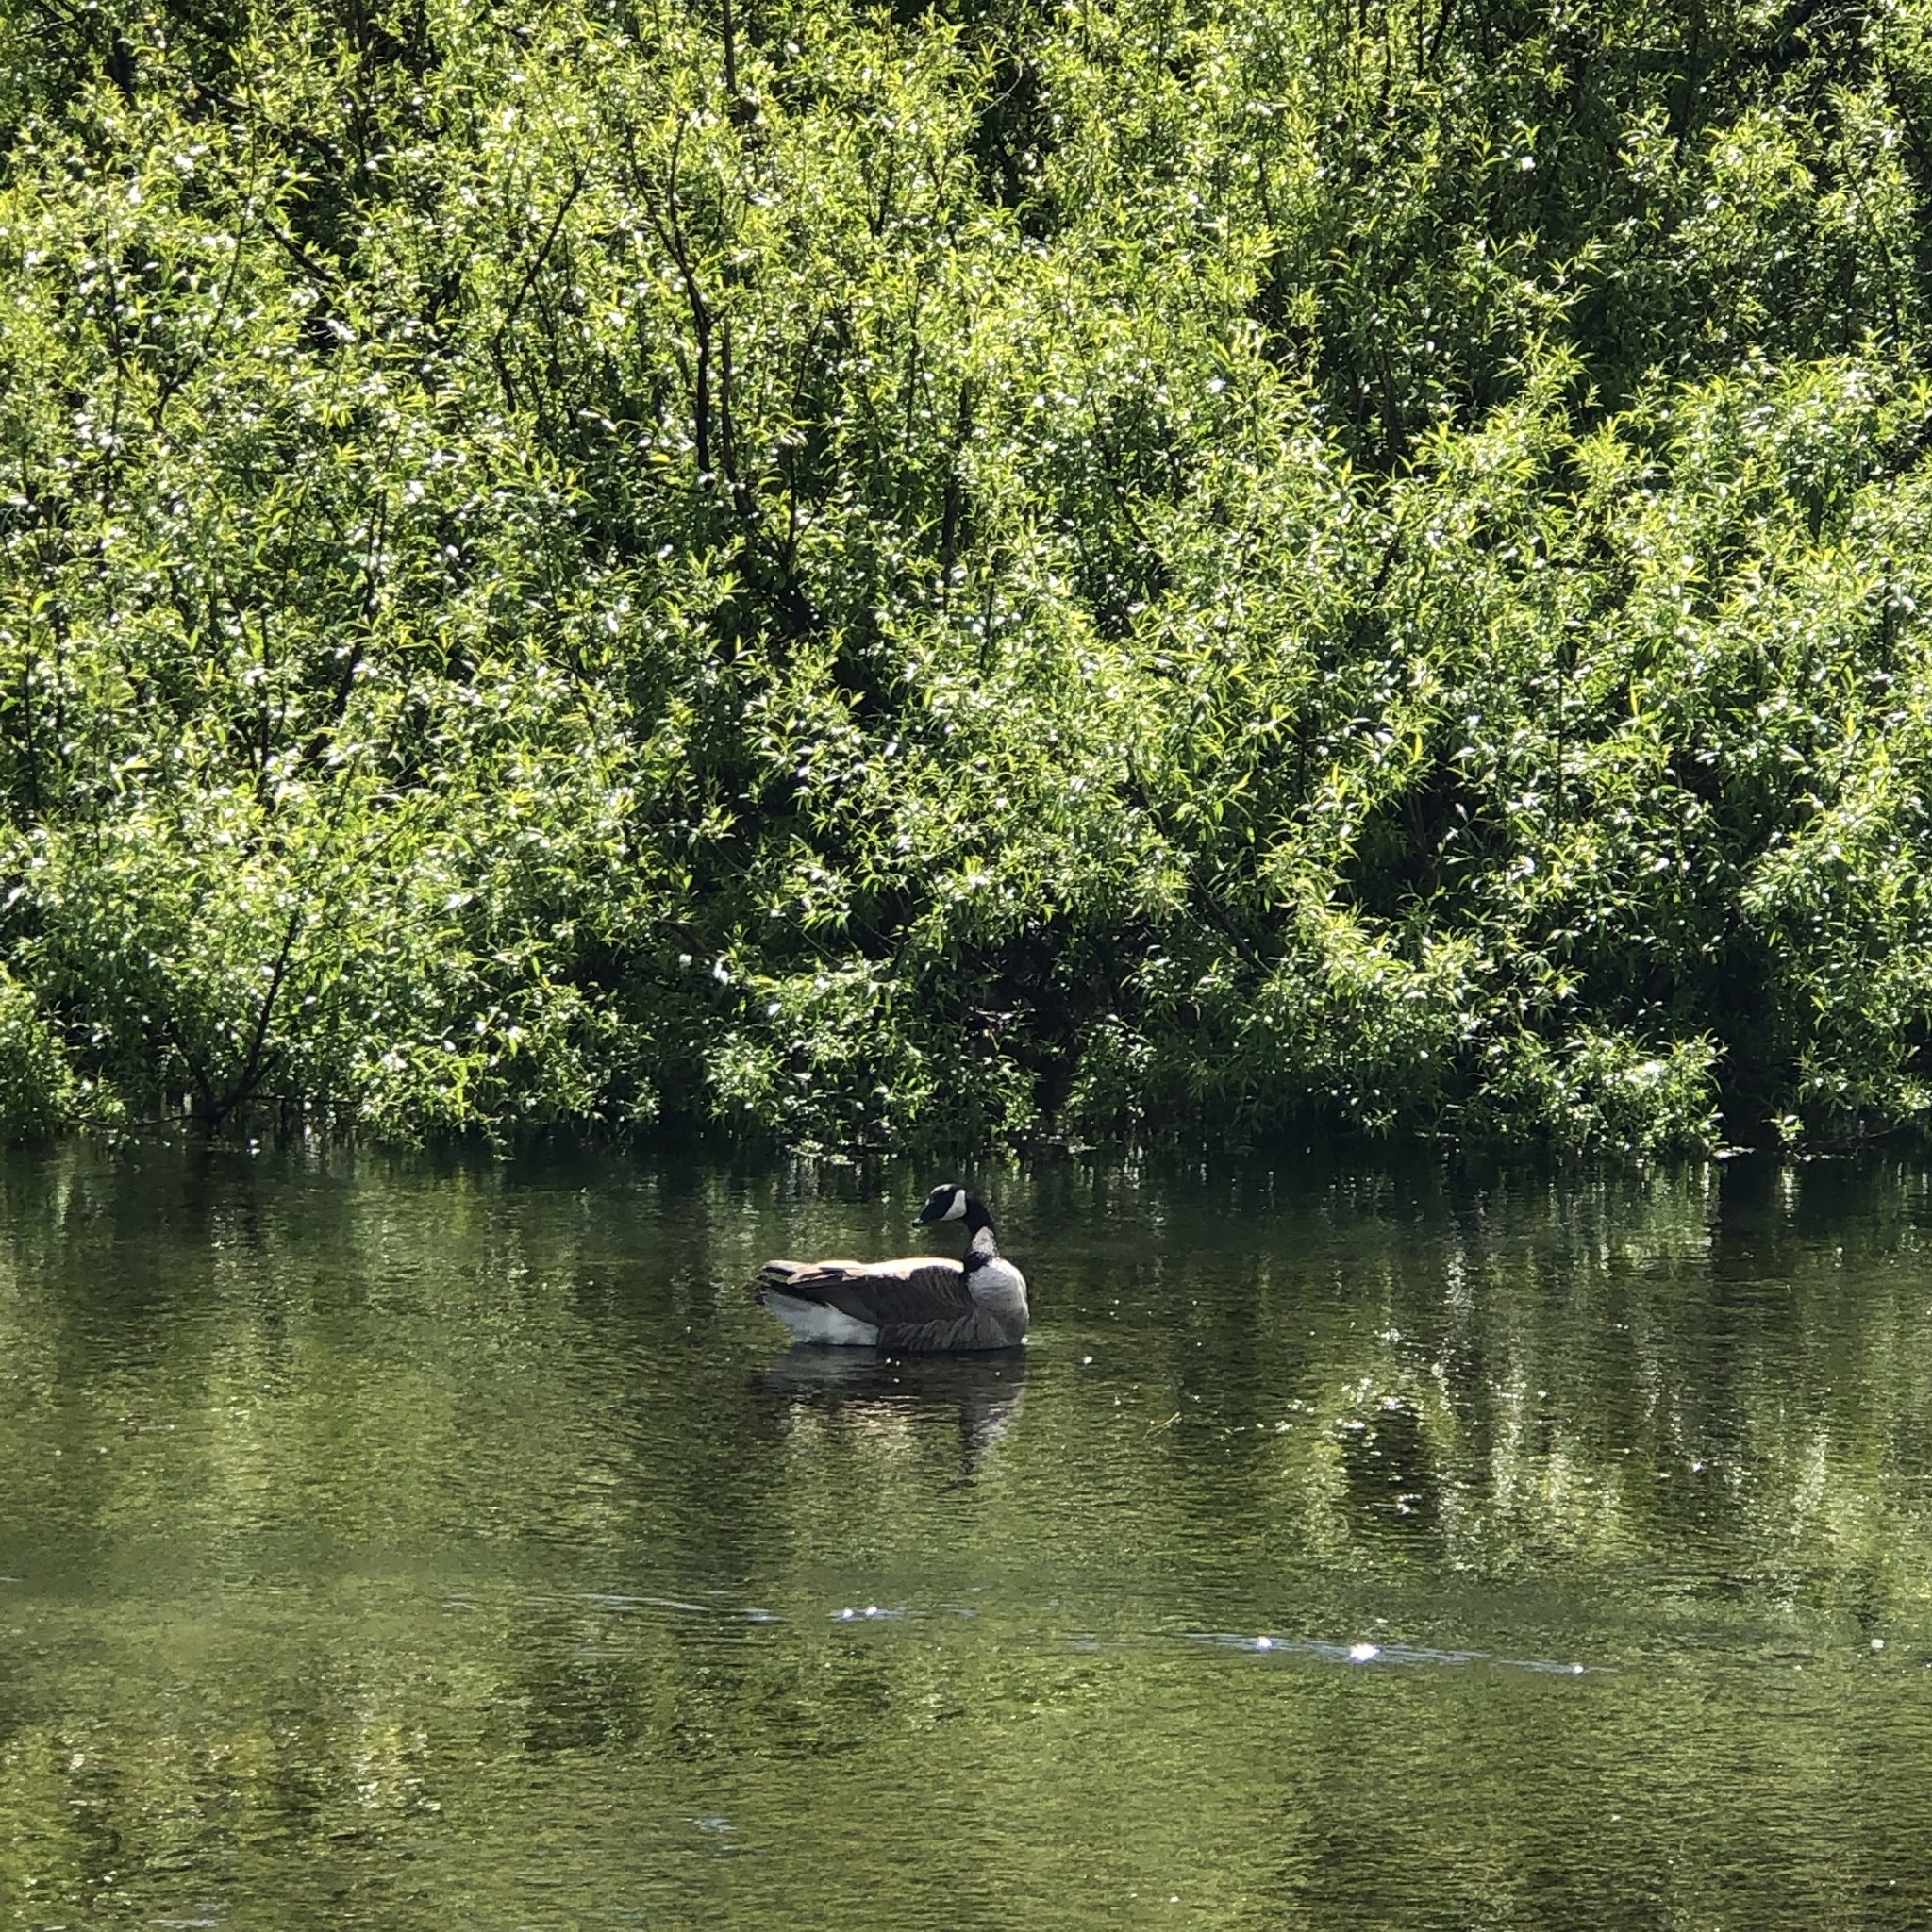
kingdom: Animalia
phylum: Chordata
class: Aves
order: Anseriformes
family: Anatidae
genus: Branta
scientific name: Branta canadensis
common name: Canada goose
